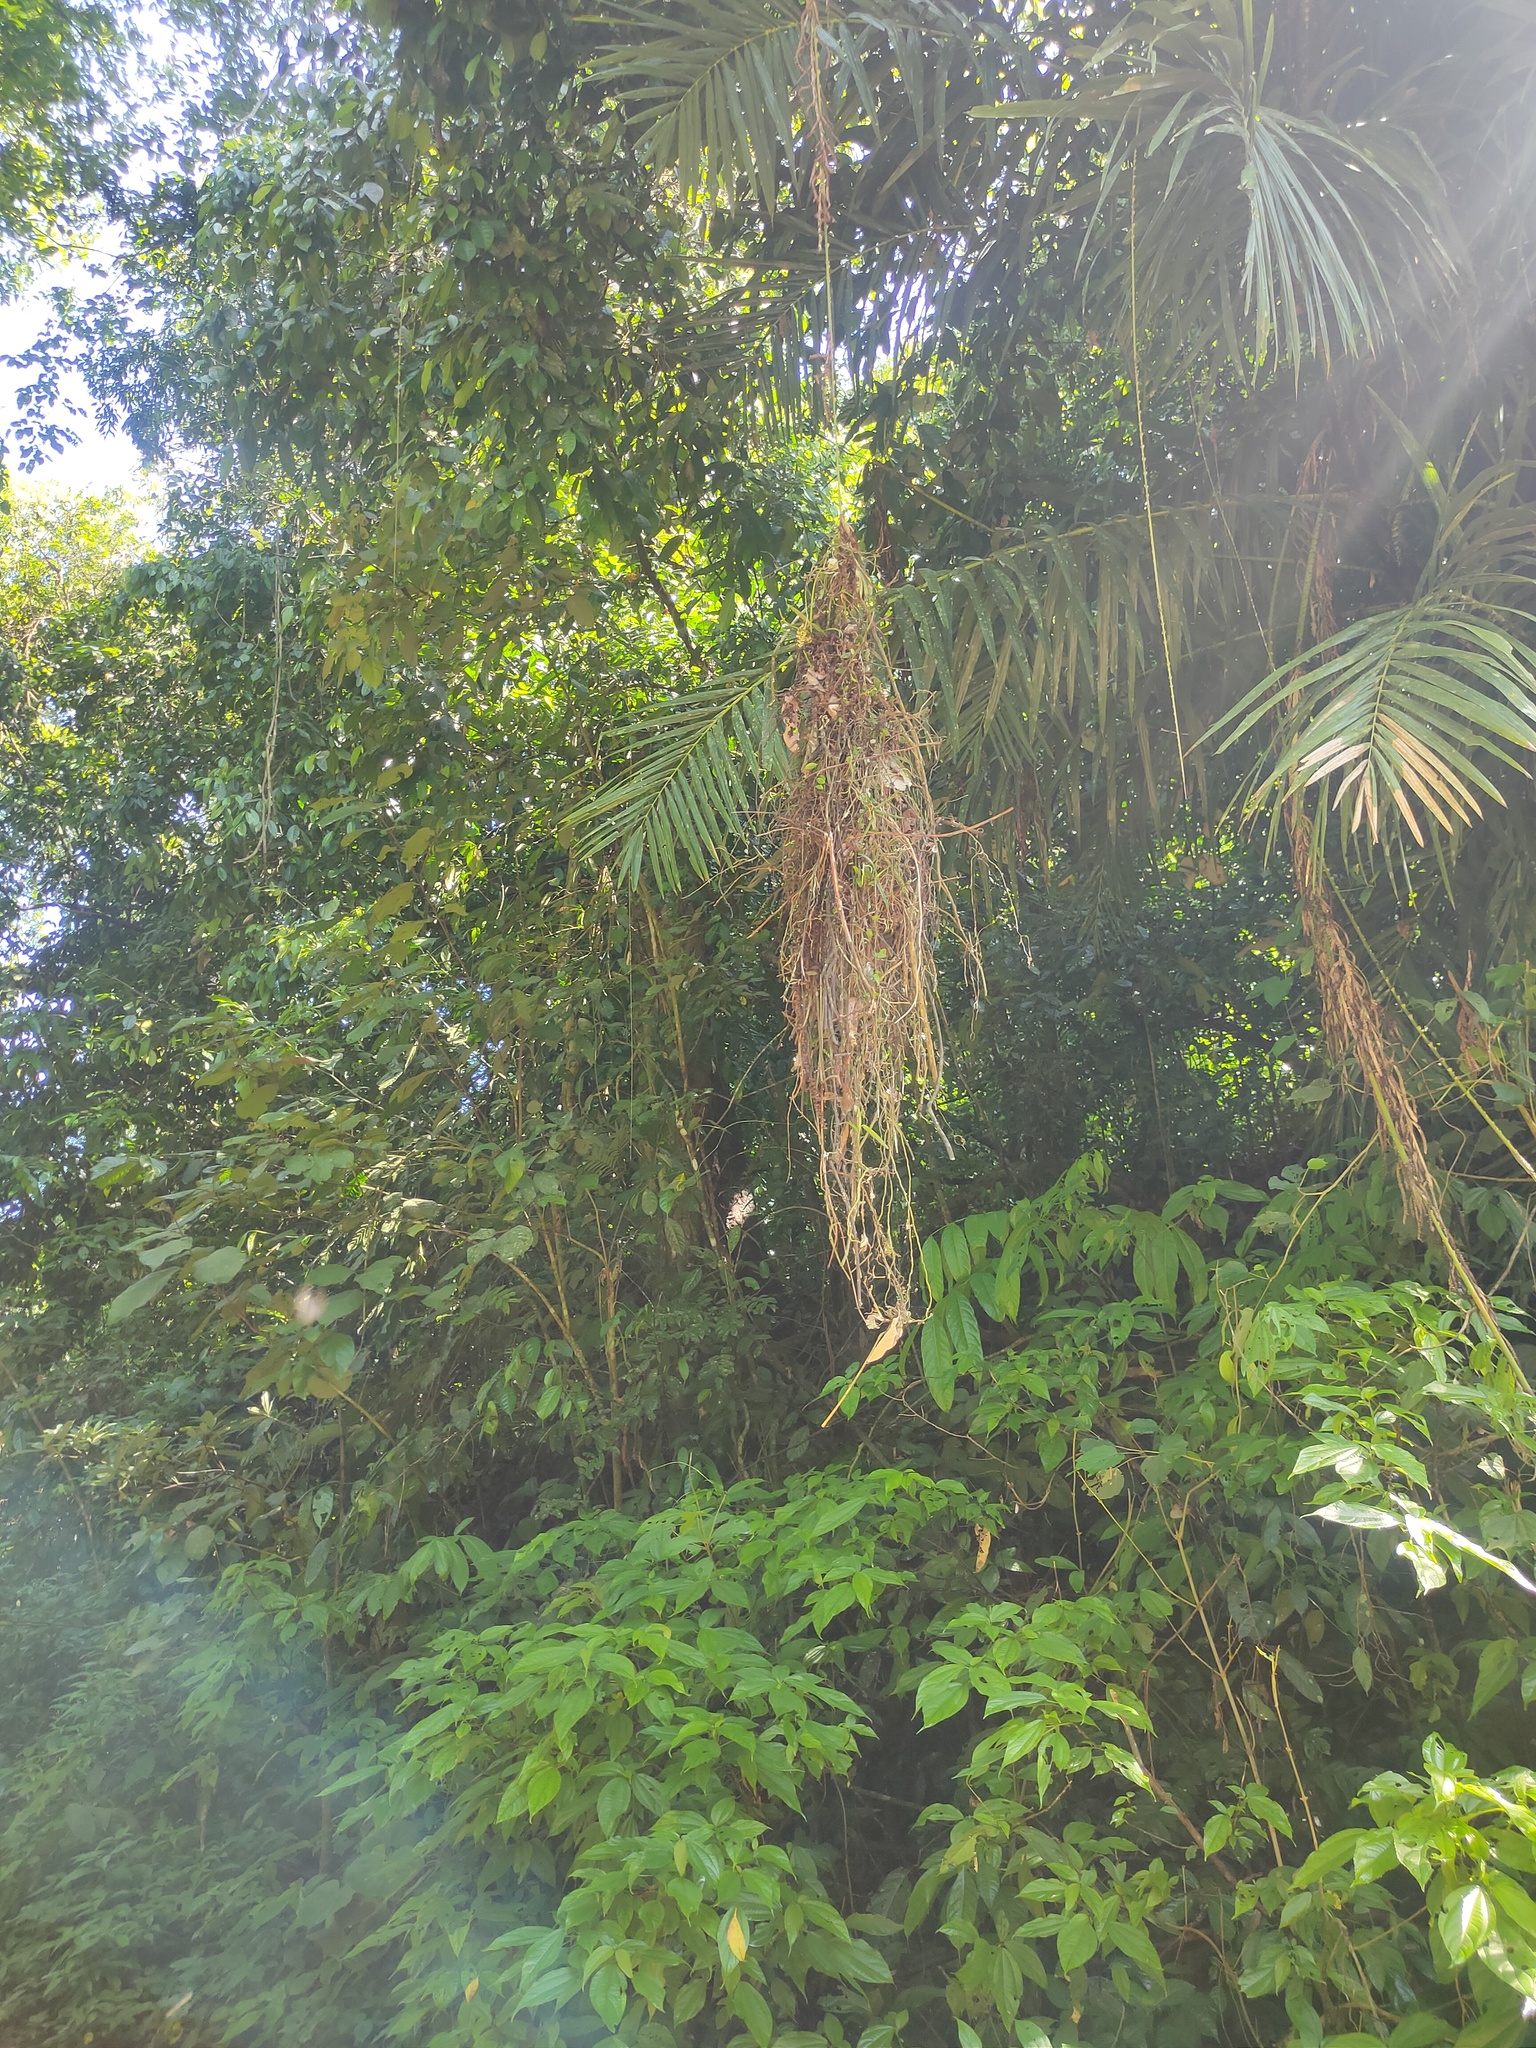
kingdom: Animalia
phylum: Chordata
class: Aves
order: Passeriformes
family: Eurylaimidae
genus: Corydon
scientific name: Corydon sumatranus
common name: Dusky broadbill
